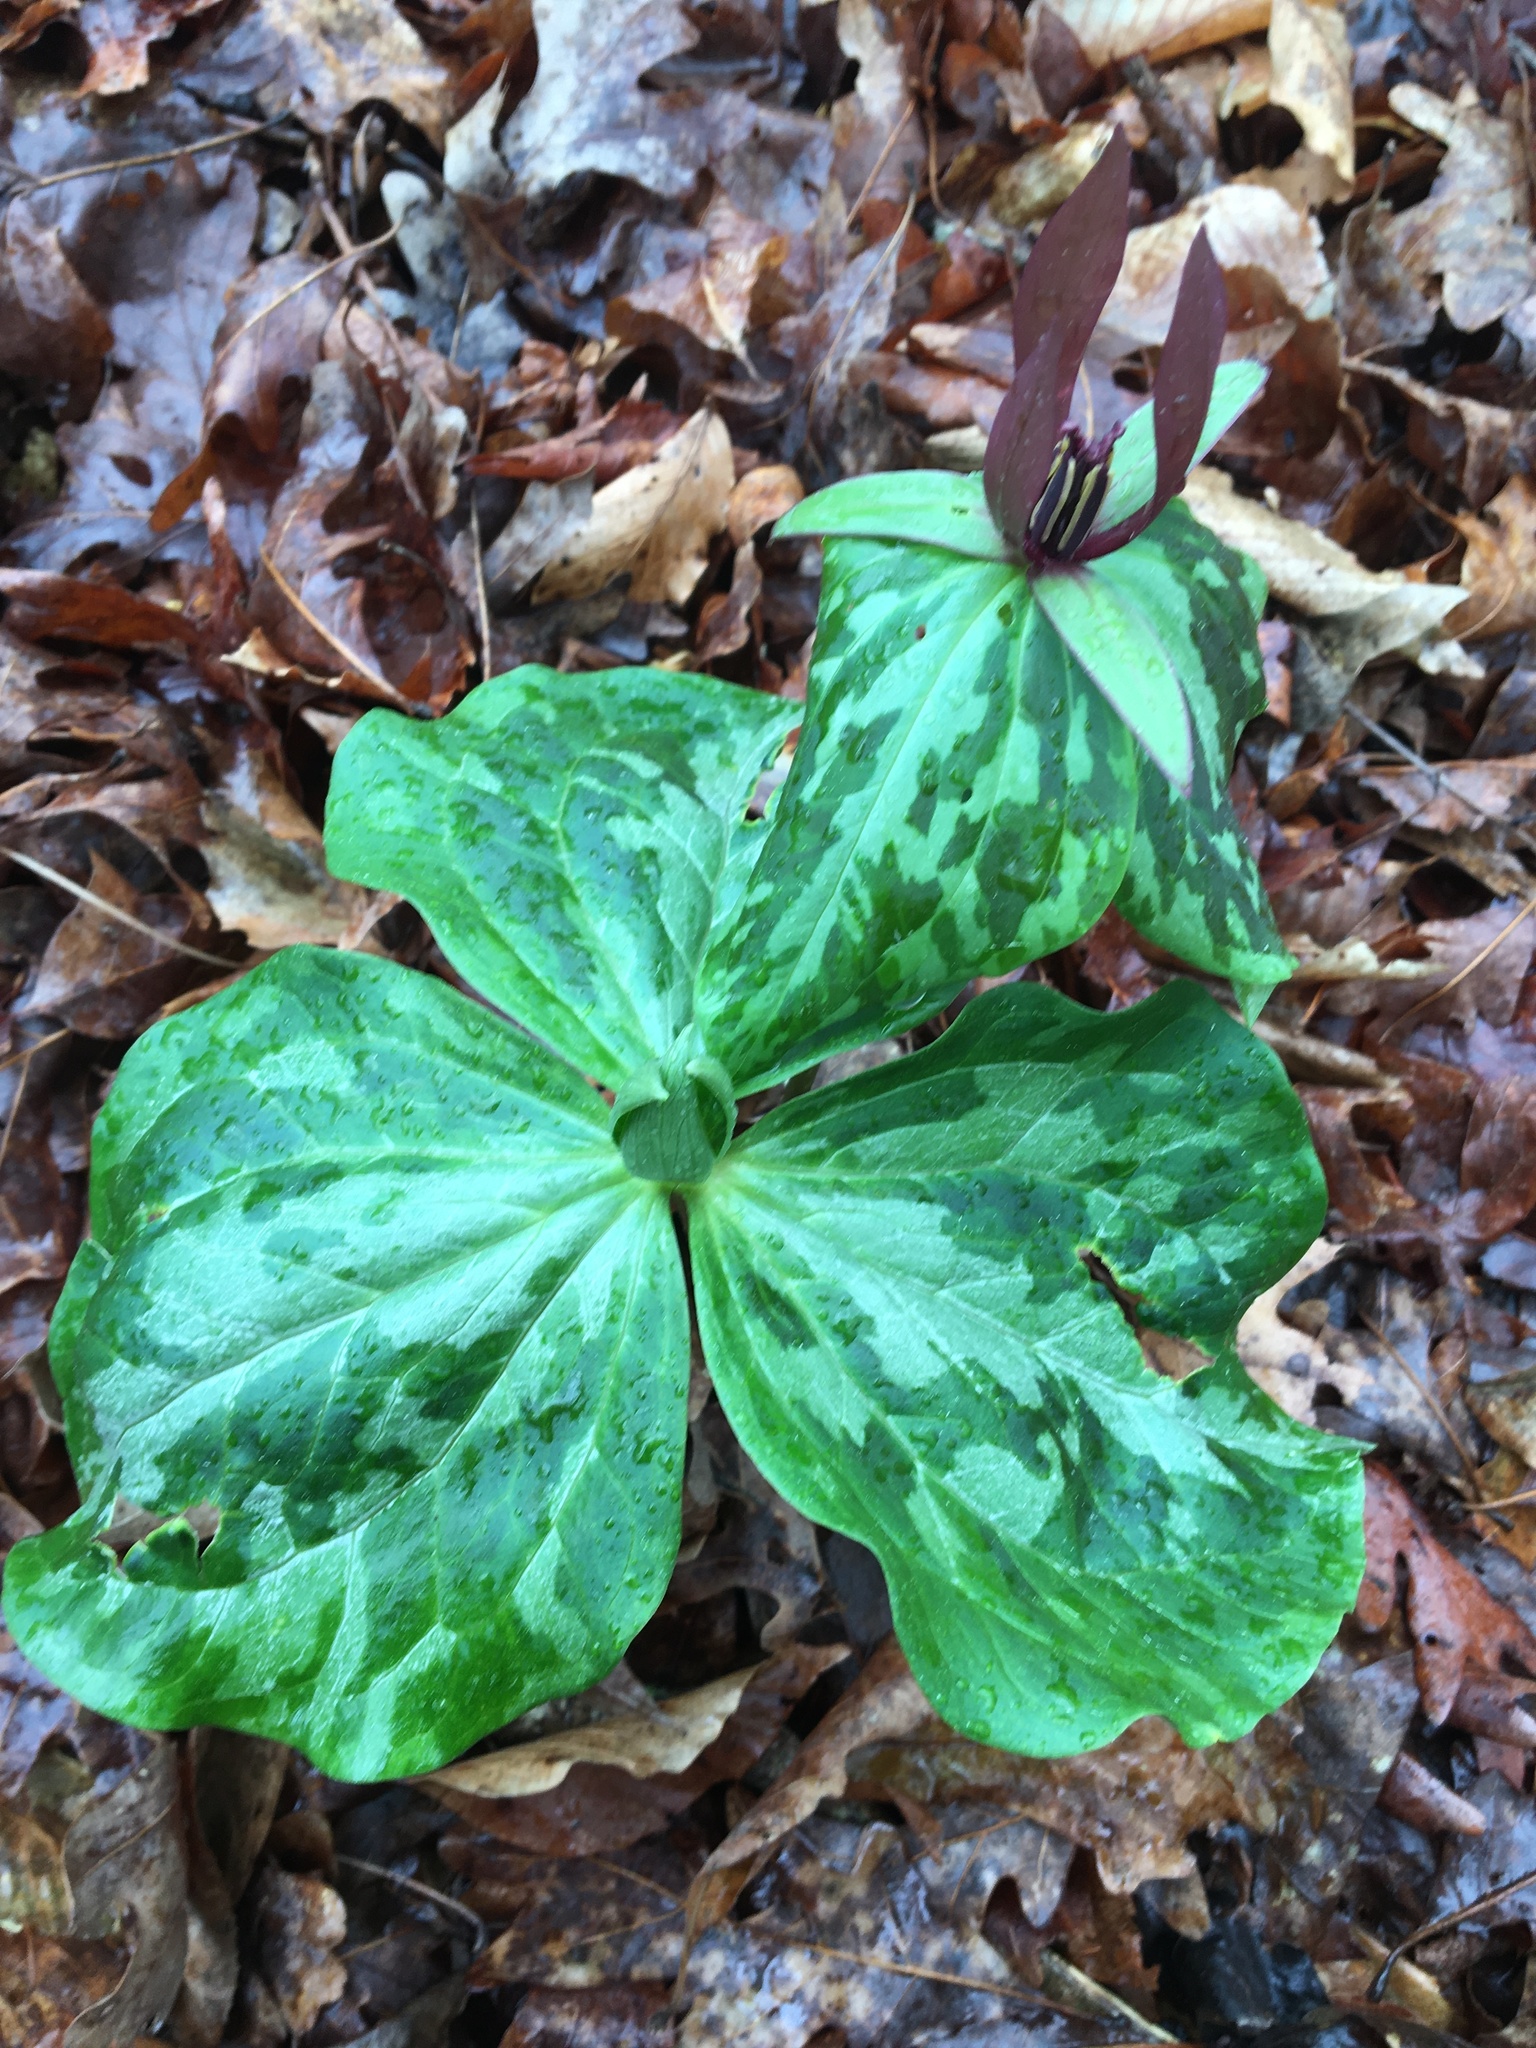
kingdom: Plantae
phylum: Tracheophyta
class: Liliopsida
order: Liliales
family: Melanthiaceae
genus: Trillium
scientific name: Trillium cuneatum
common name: Cuneate trillium
